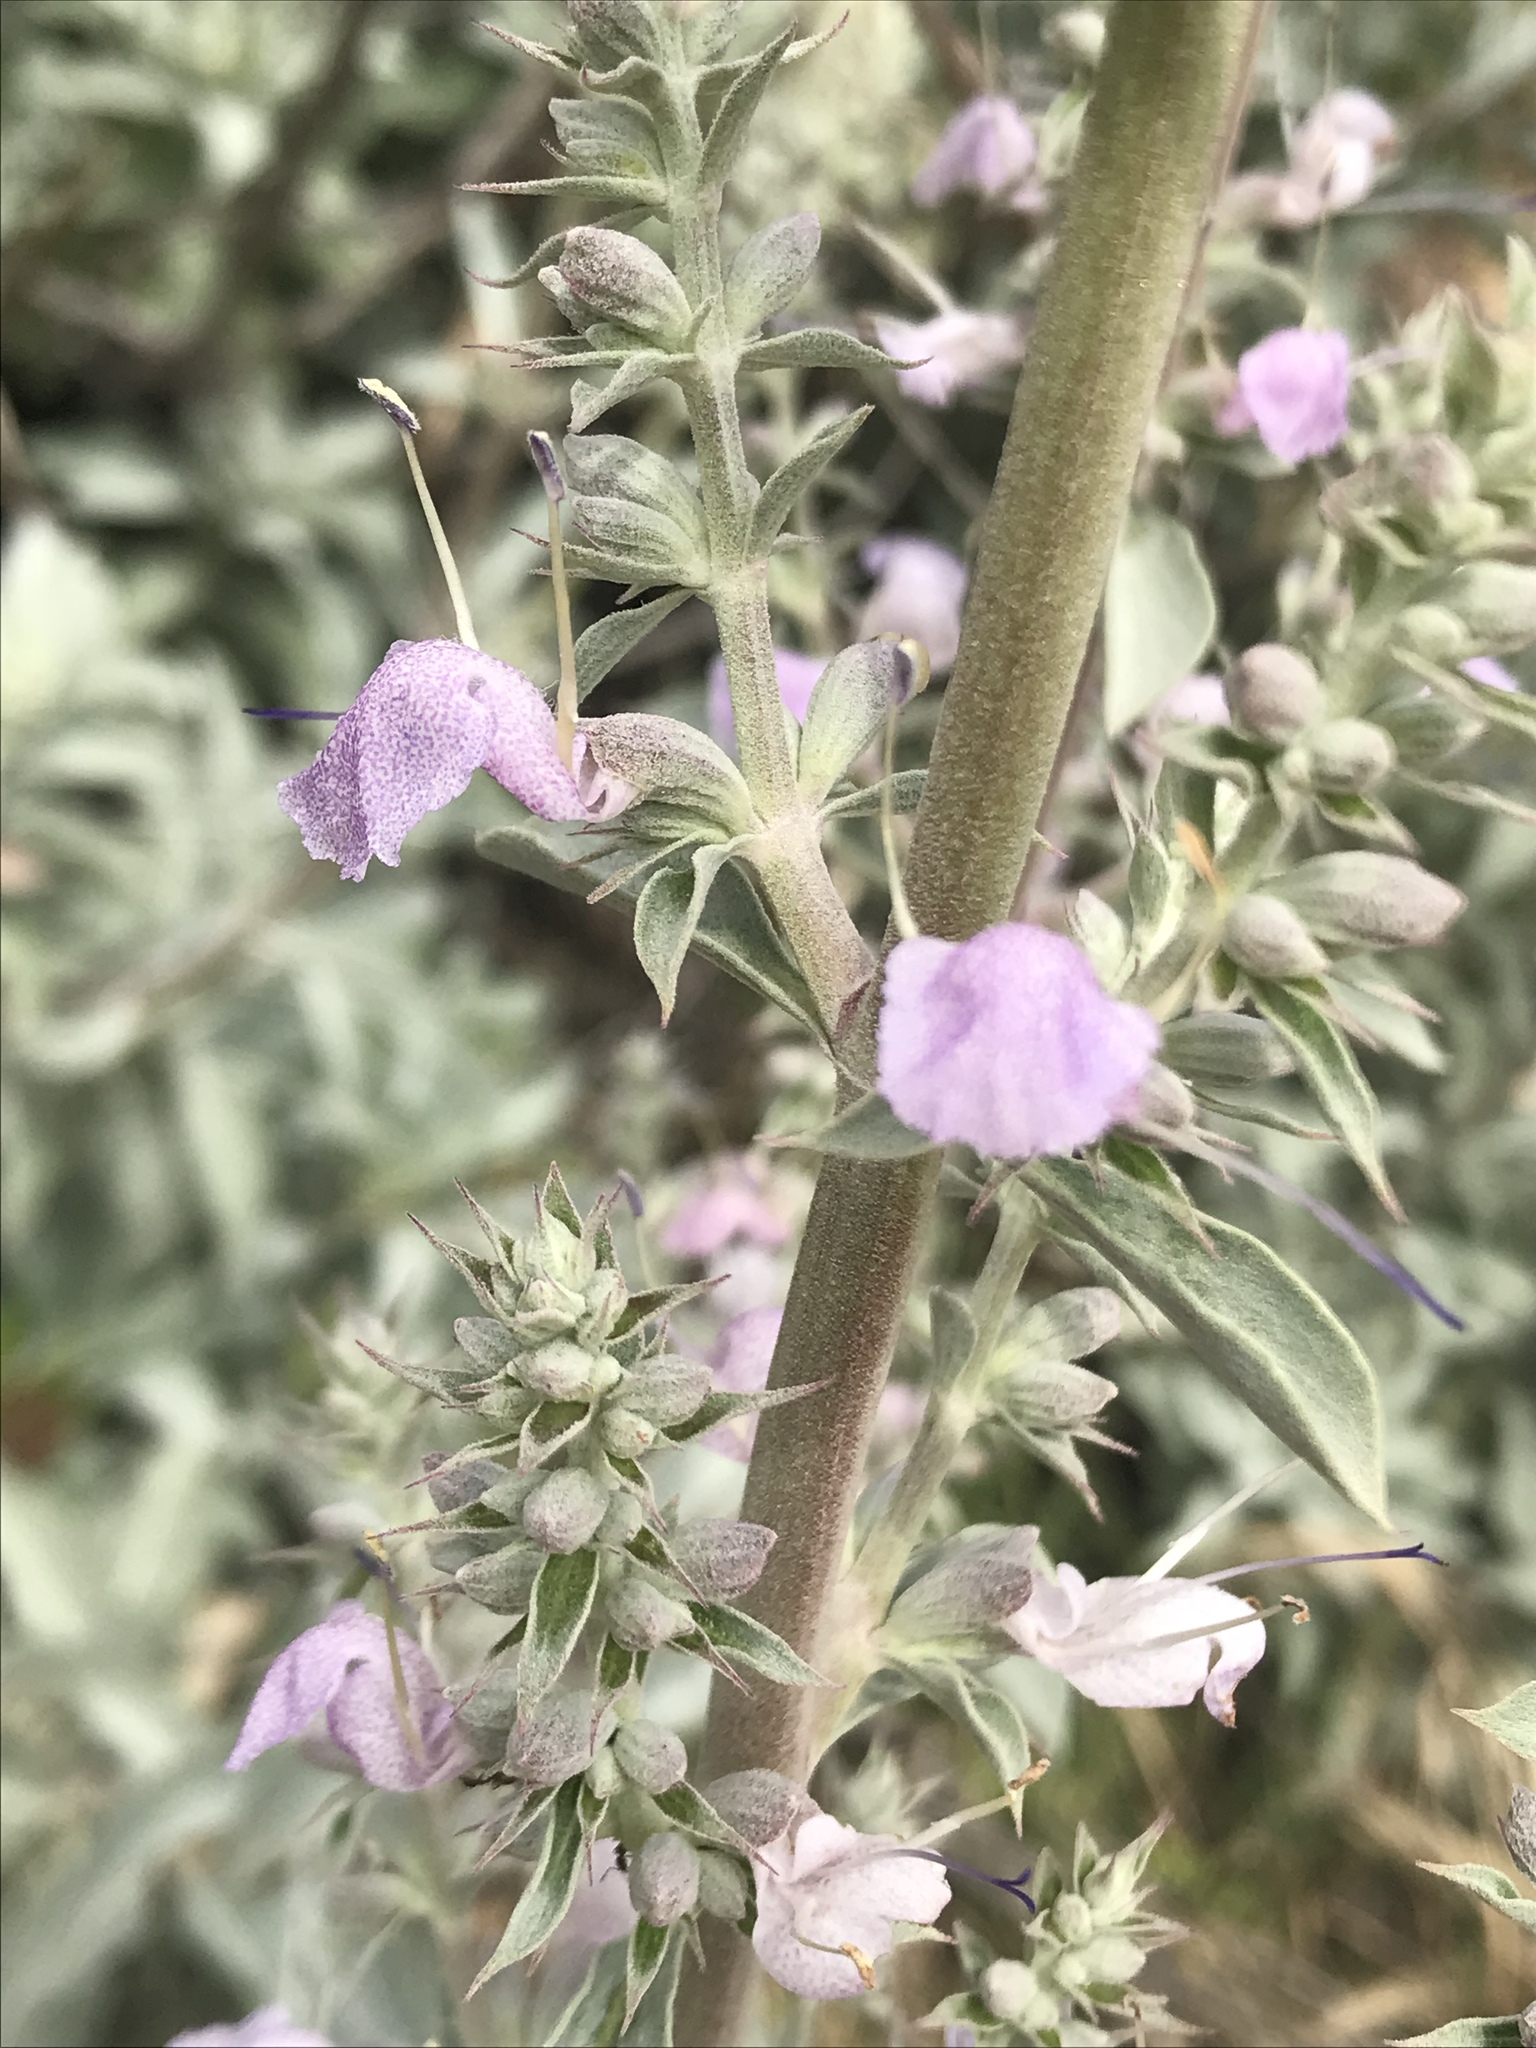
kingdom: Plantae
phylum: Tracheophyta
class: Magnoliopsida
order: Lamiales
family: Lamiaceae
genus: Salvia
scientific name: Salvia apiana
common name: White sage
